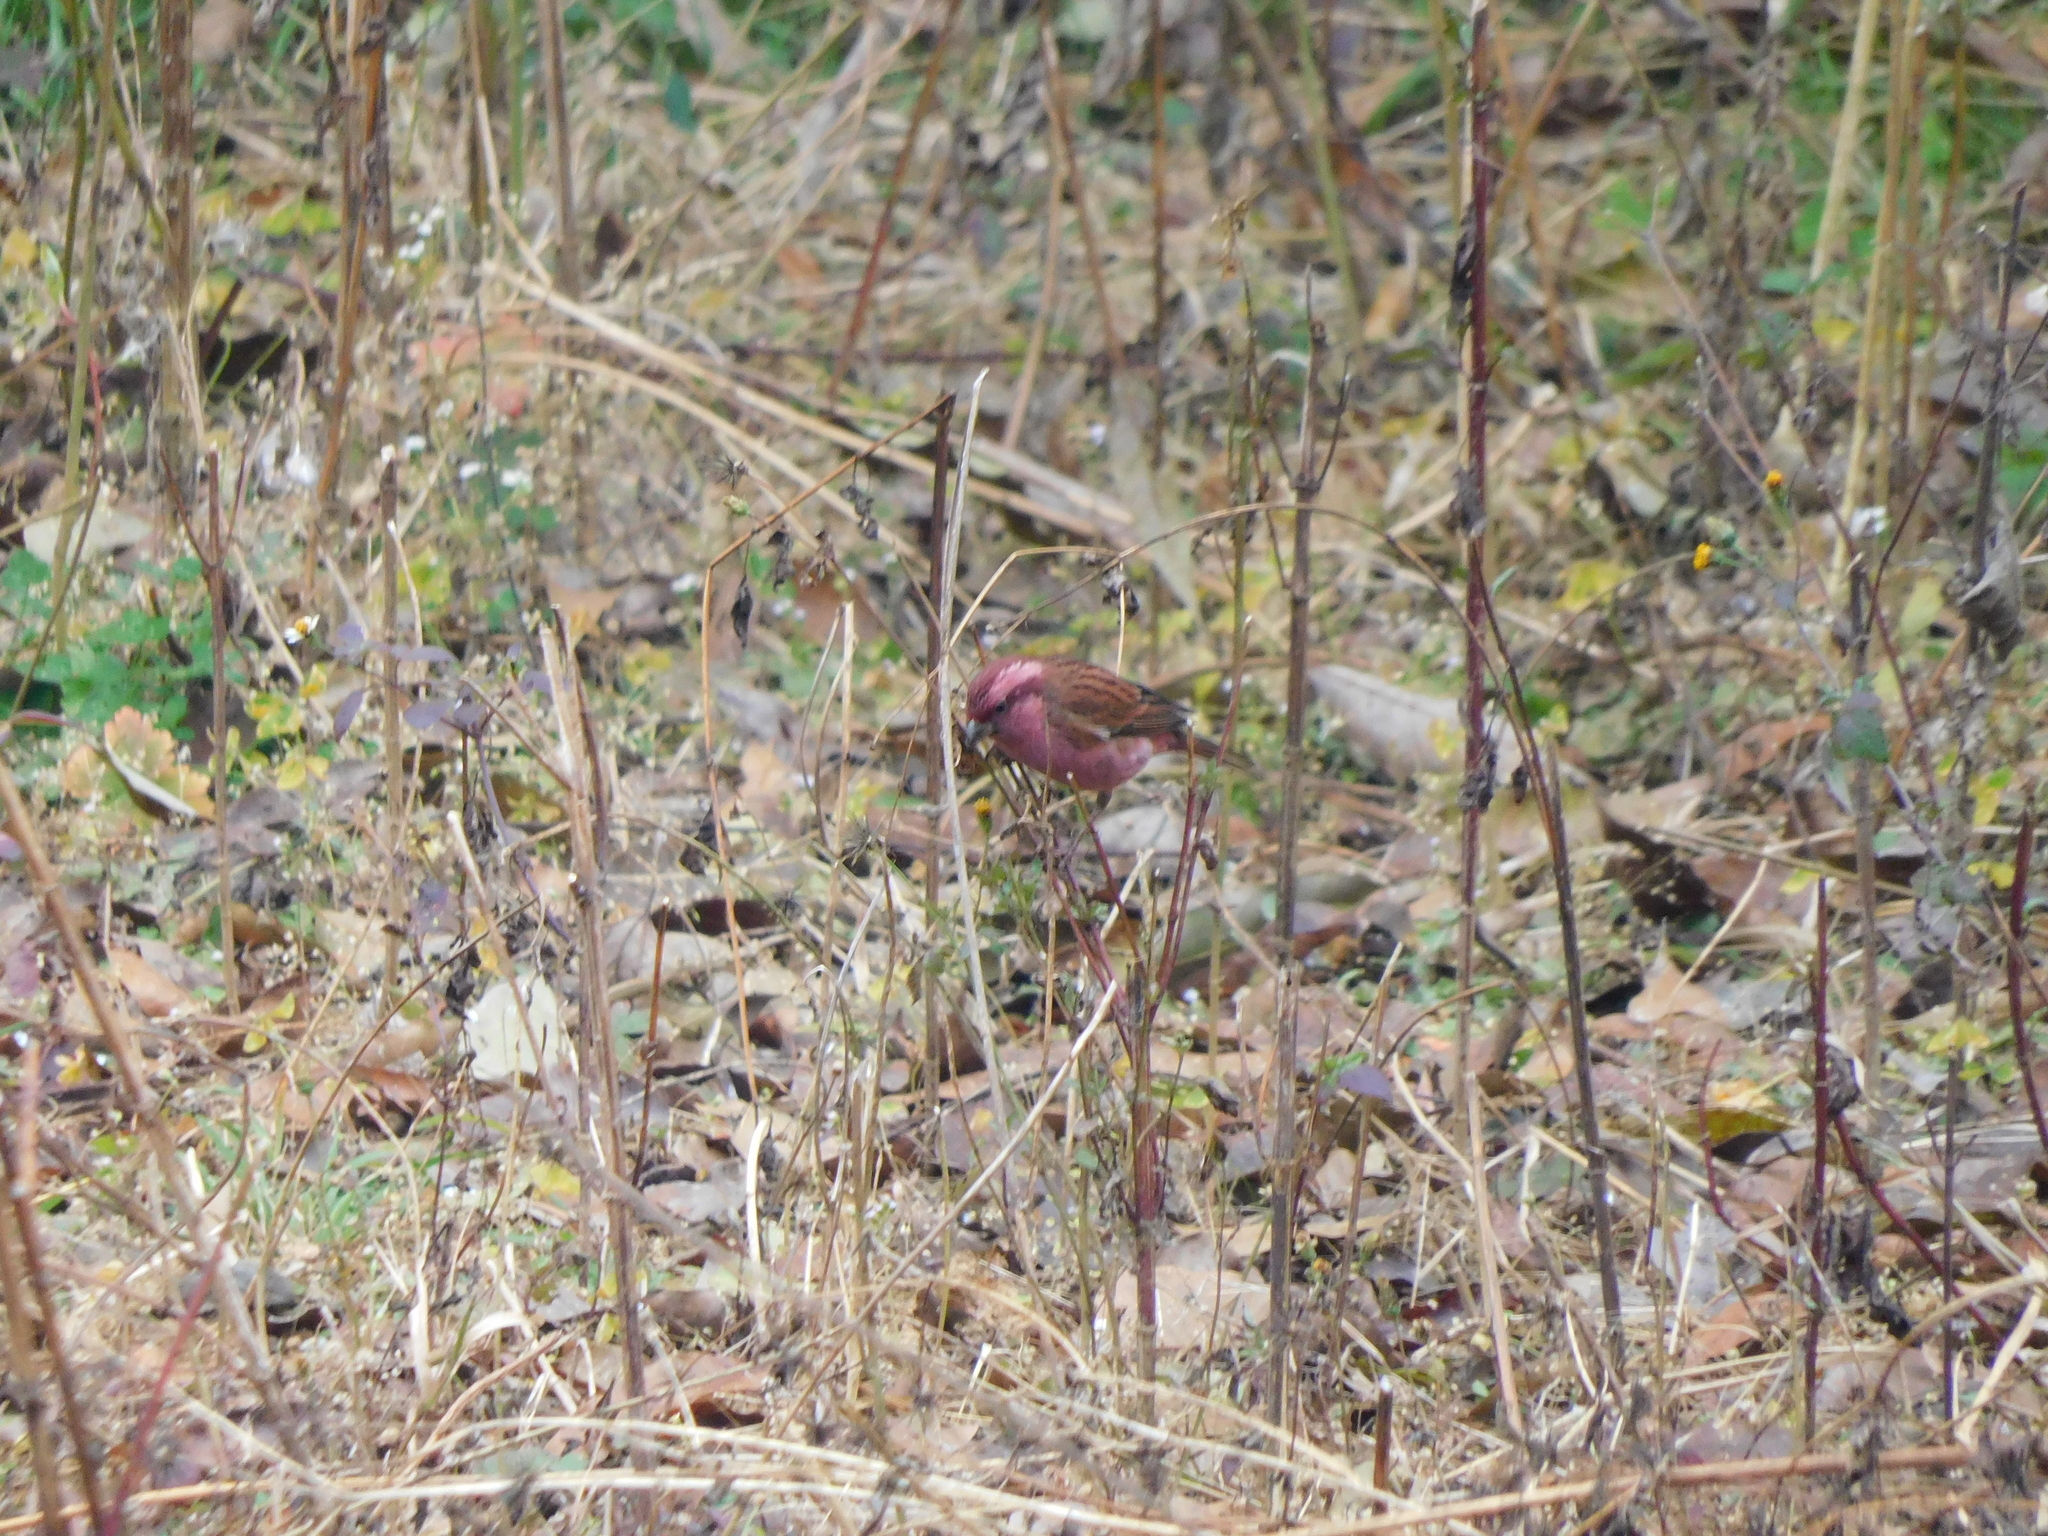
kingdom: Animalia
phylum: Chordata
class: Aves
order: Passeriformes
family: Fringillidae
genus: Carpodacus
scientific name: Carpodacus rodochroa
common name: Pink-browed rosefinch
